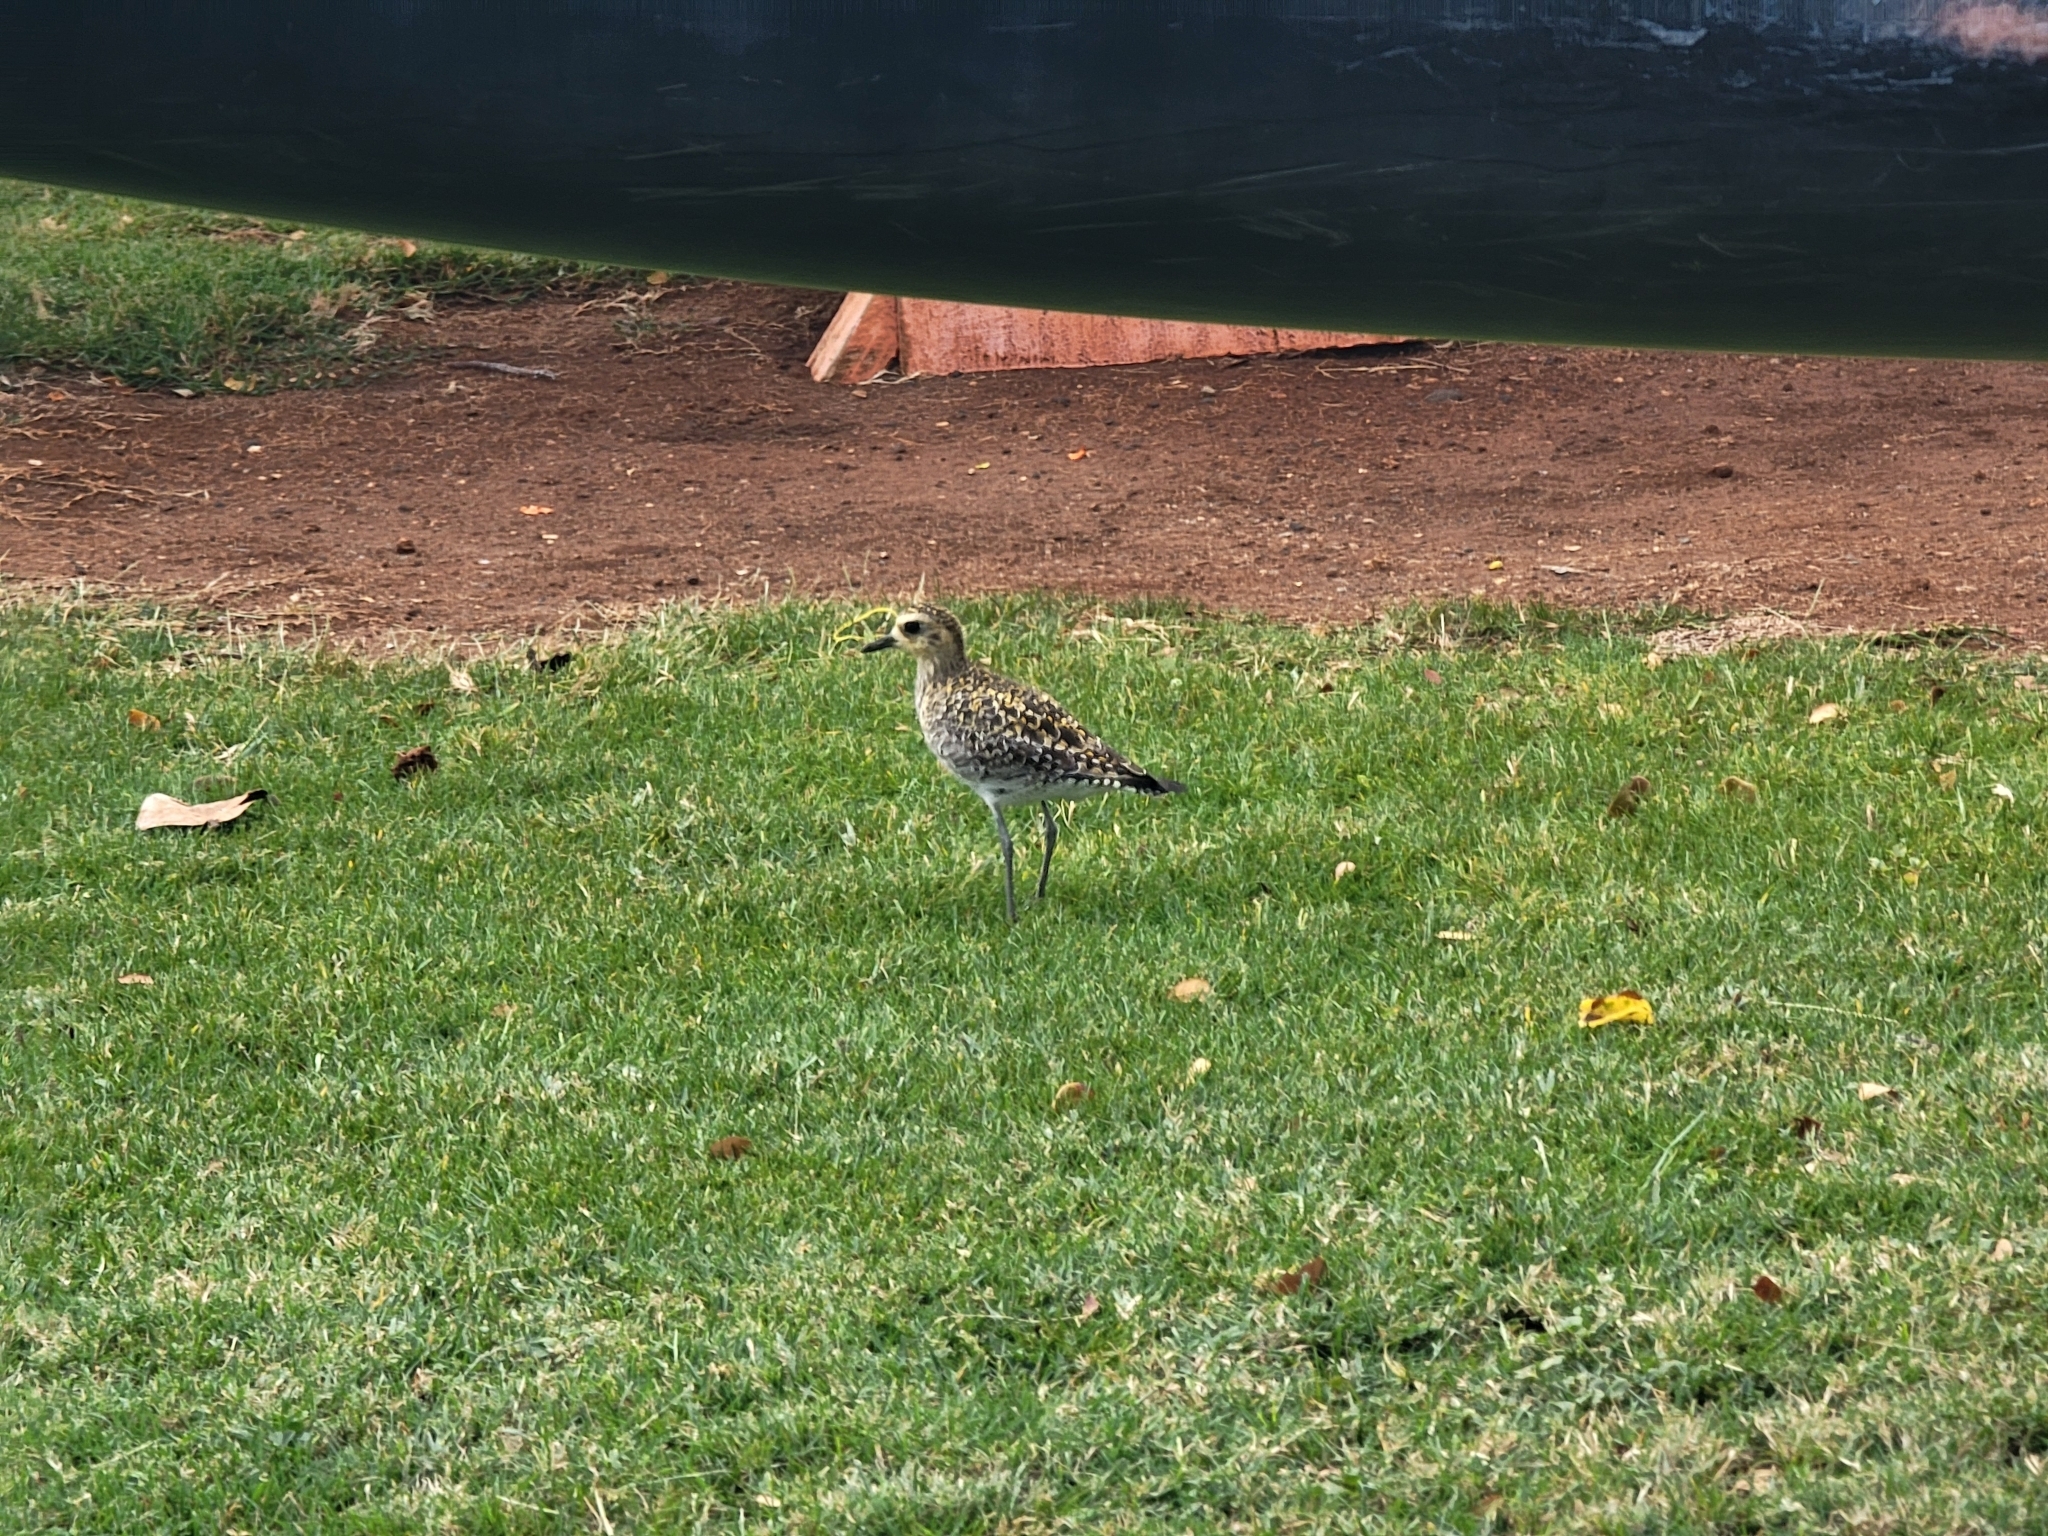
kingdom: Animalia
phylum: Chordata
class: Aves
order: Charadriiformes
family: Charadriidae
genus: Pluvialis
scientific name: Pluvialis fulva
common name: Pacific golden plover
